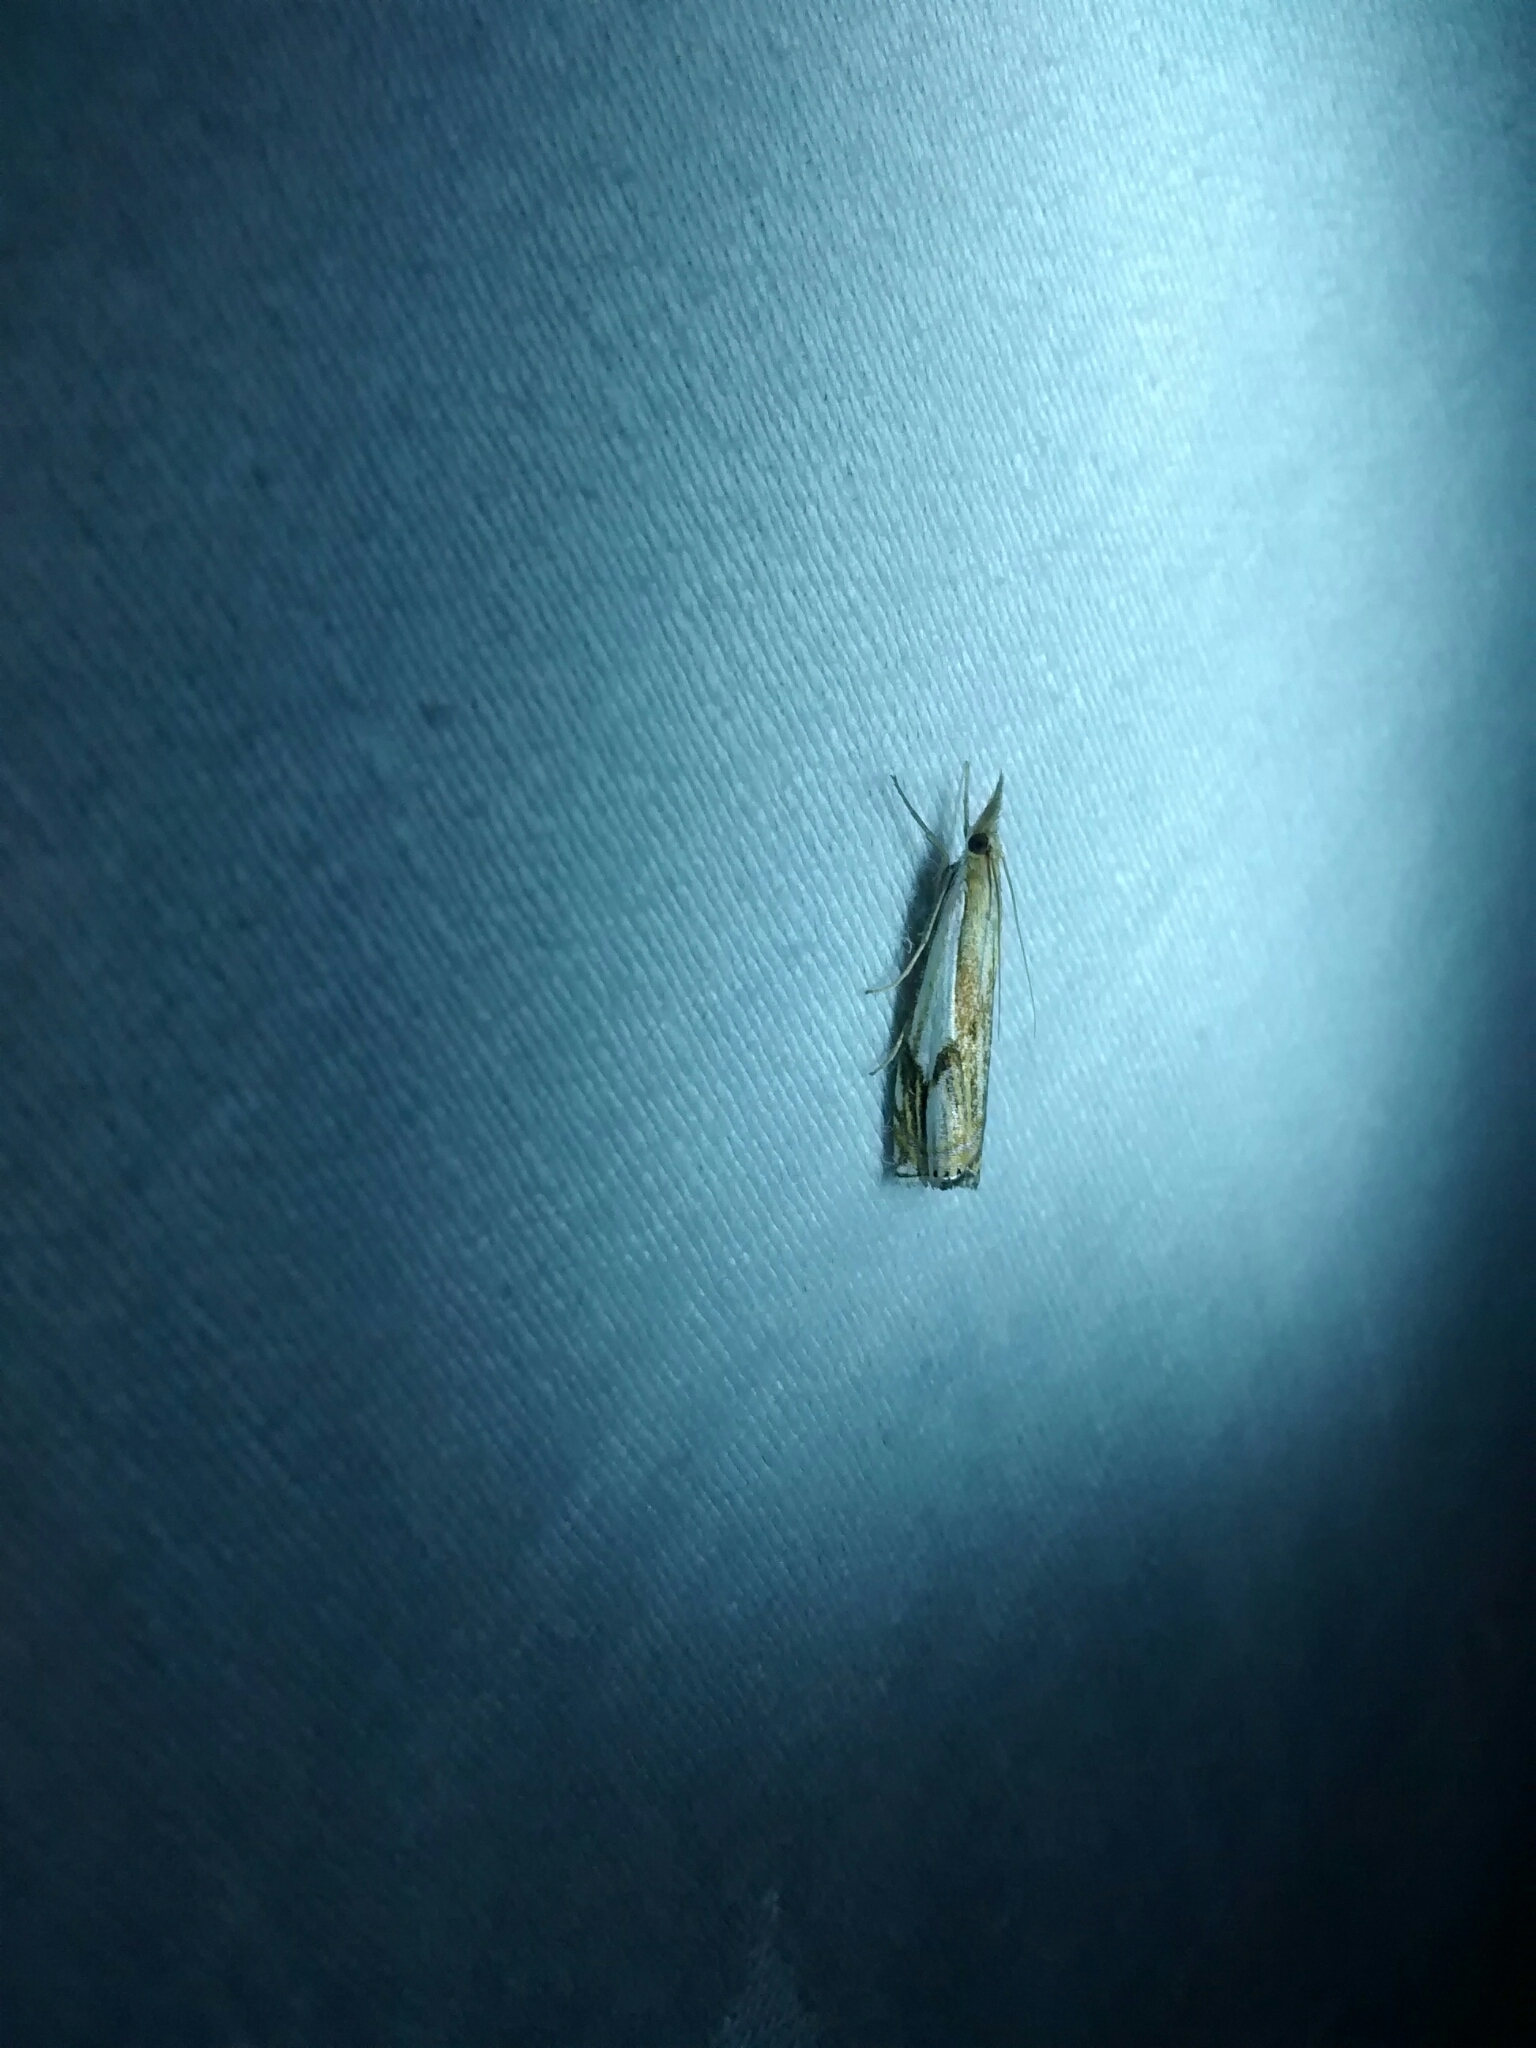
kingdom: Animalia
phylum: Arthropoda
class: Insecta
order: Lepidoptera
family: Crambidae
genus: Crambus
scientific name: Crambus agitatellus
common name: Double-banded grass-veneer
